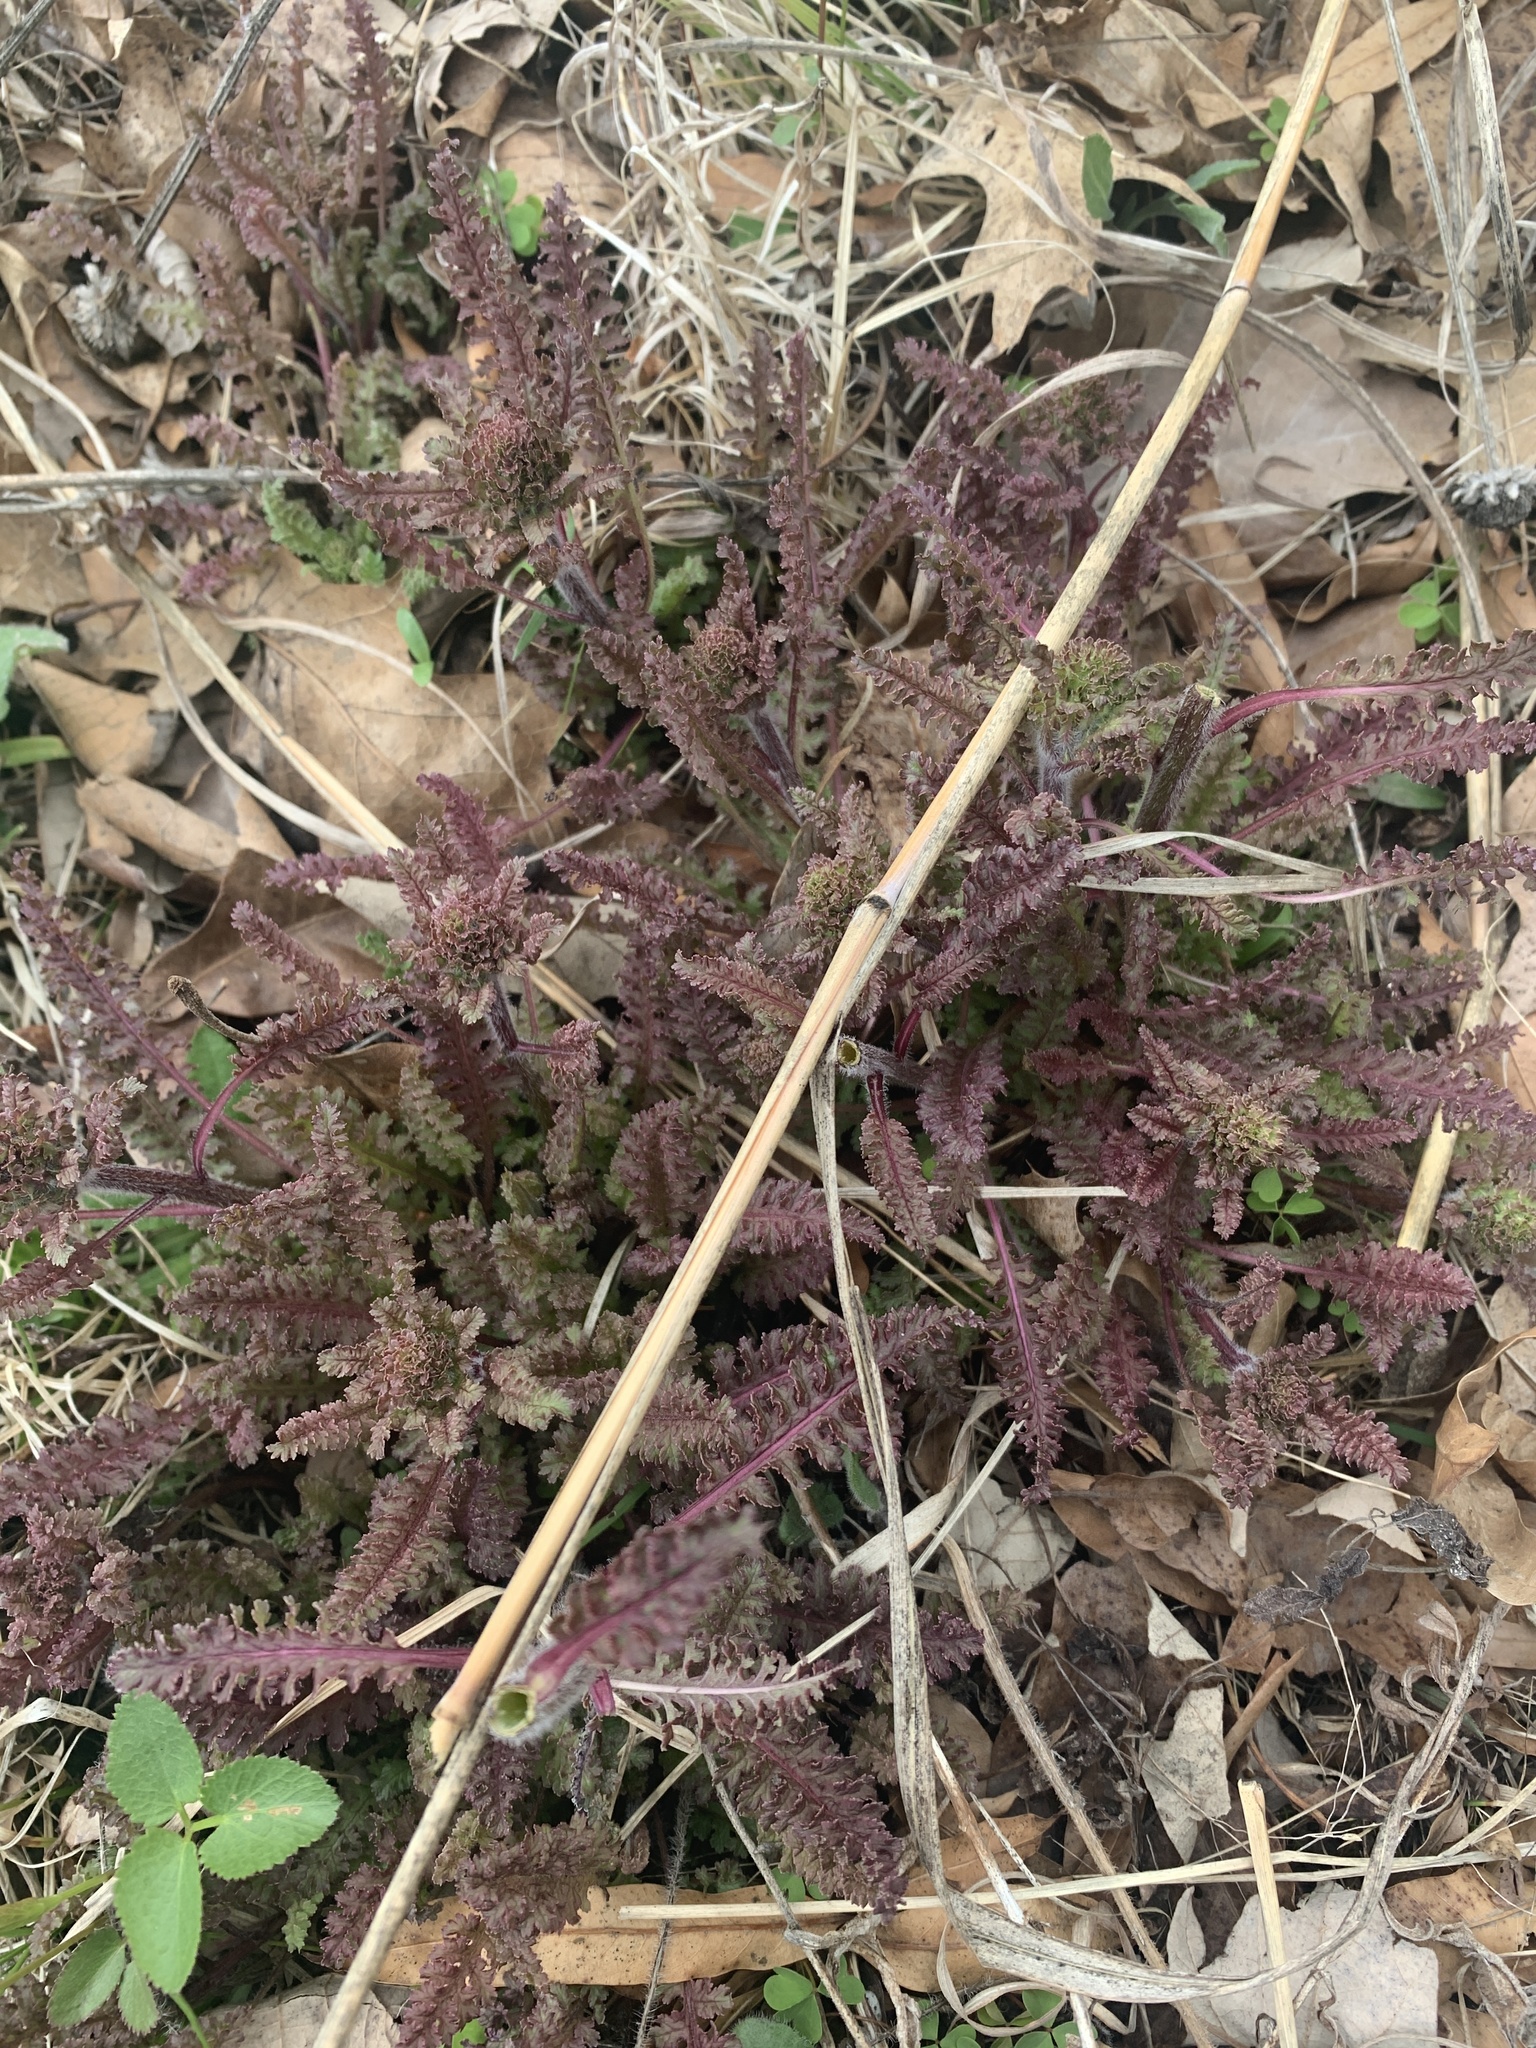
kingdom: Plantae
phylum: Tracheophyta
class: Magnoliopsida
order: Lamiales
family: Orobanchaceae
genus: Pedicularis
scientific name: Pedicularis canadensis
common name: Early lousewort
